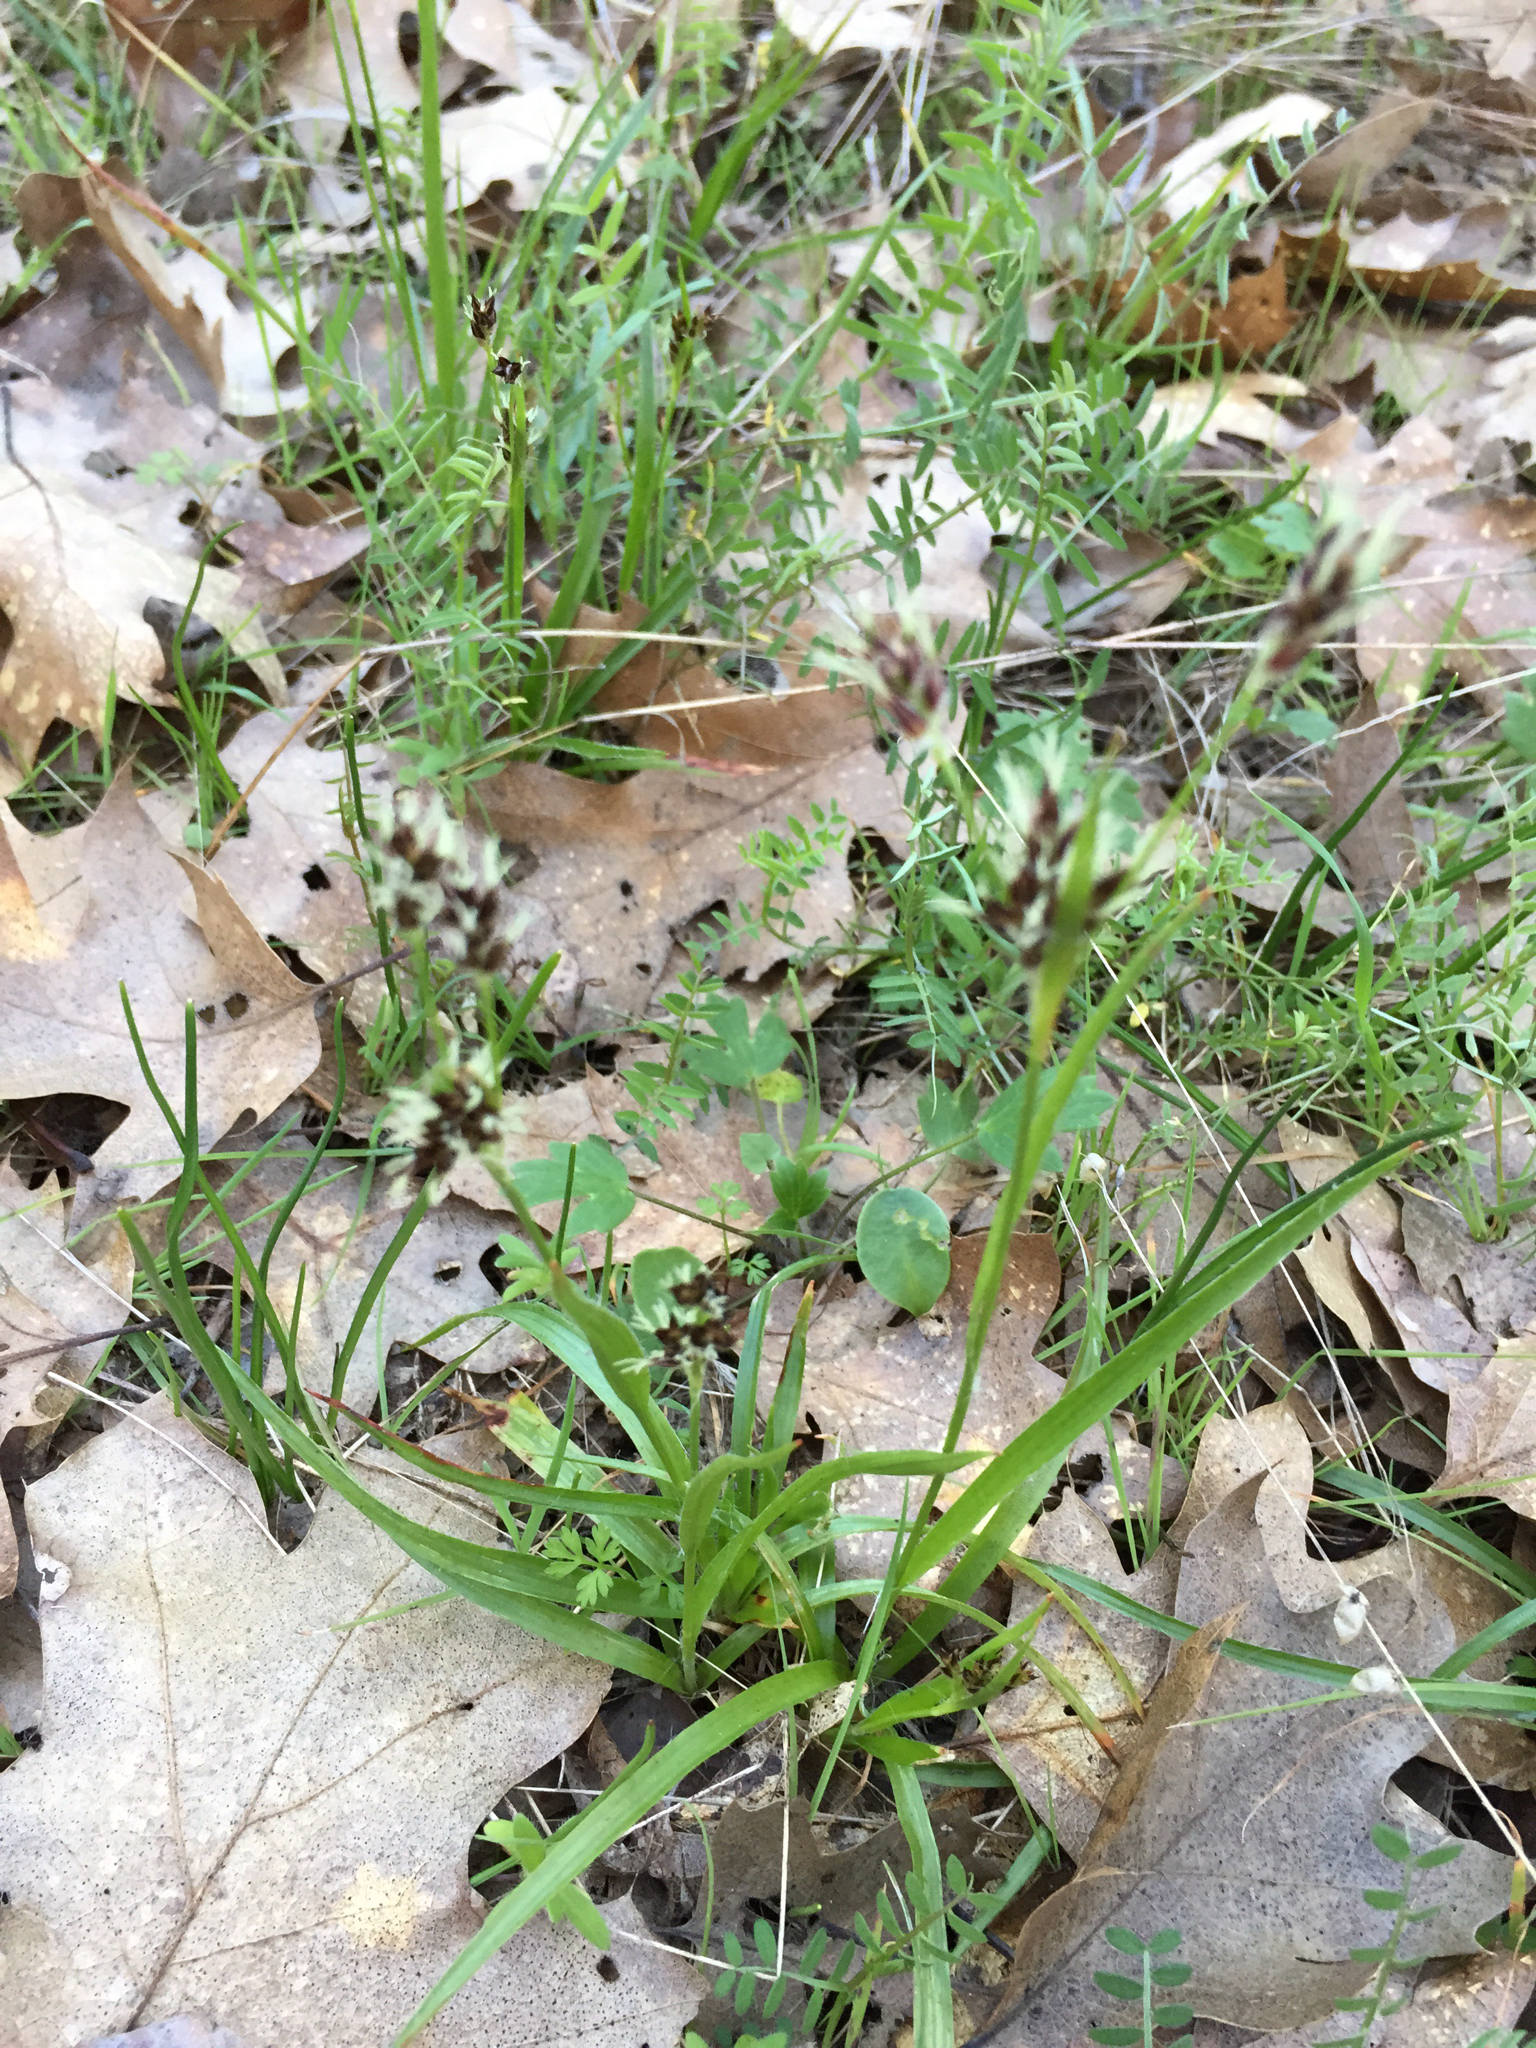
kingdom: Plantae
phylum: Tracheophyta
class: Liliopsida
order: Poales
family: Juncaceae
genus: Luzula
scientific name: Luzula comosa
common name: Pacific woodrush
